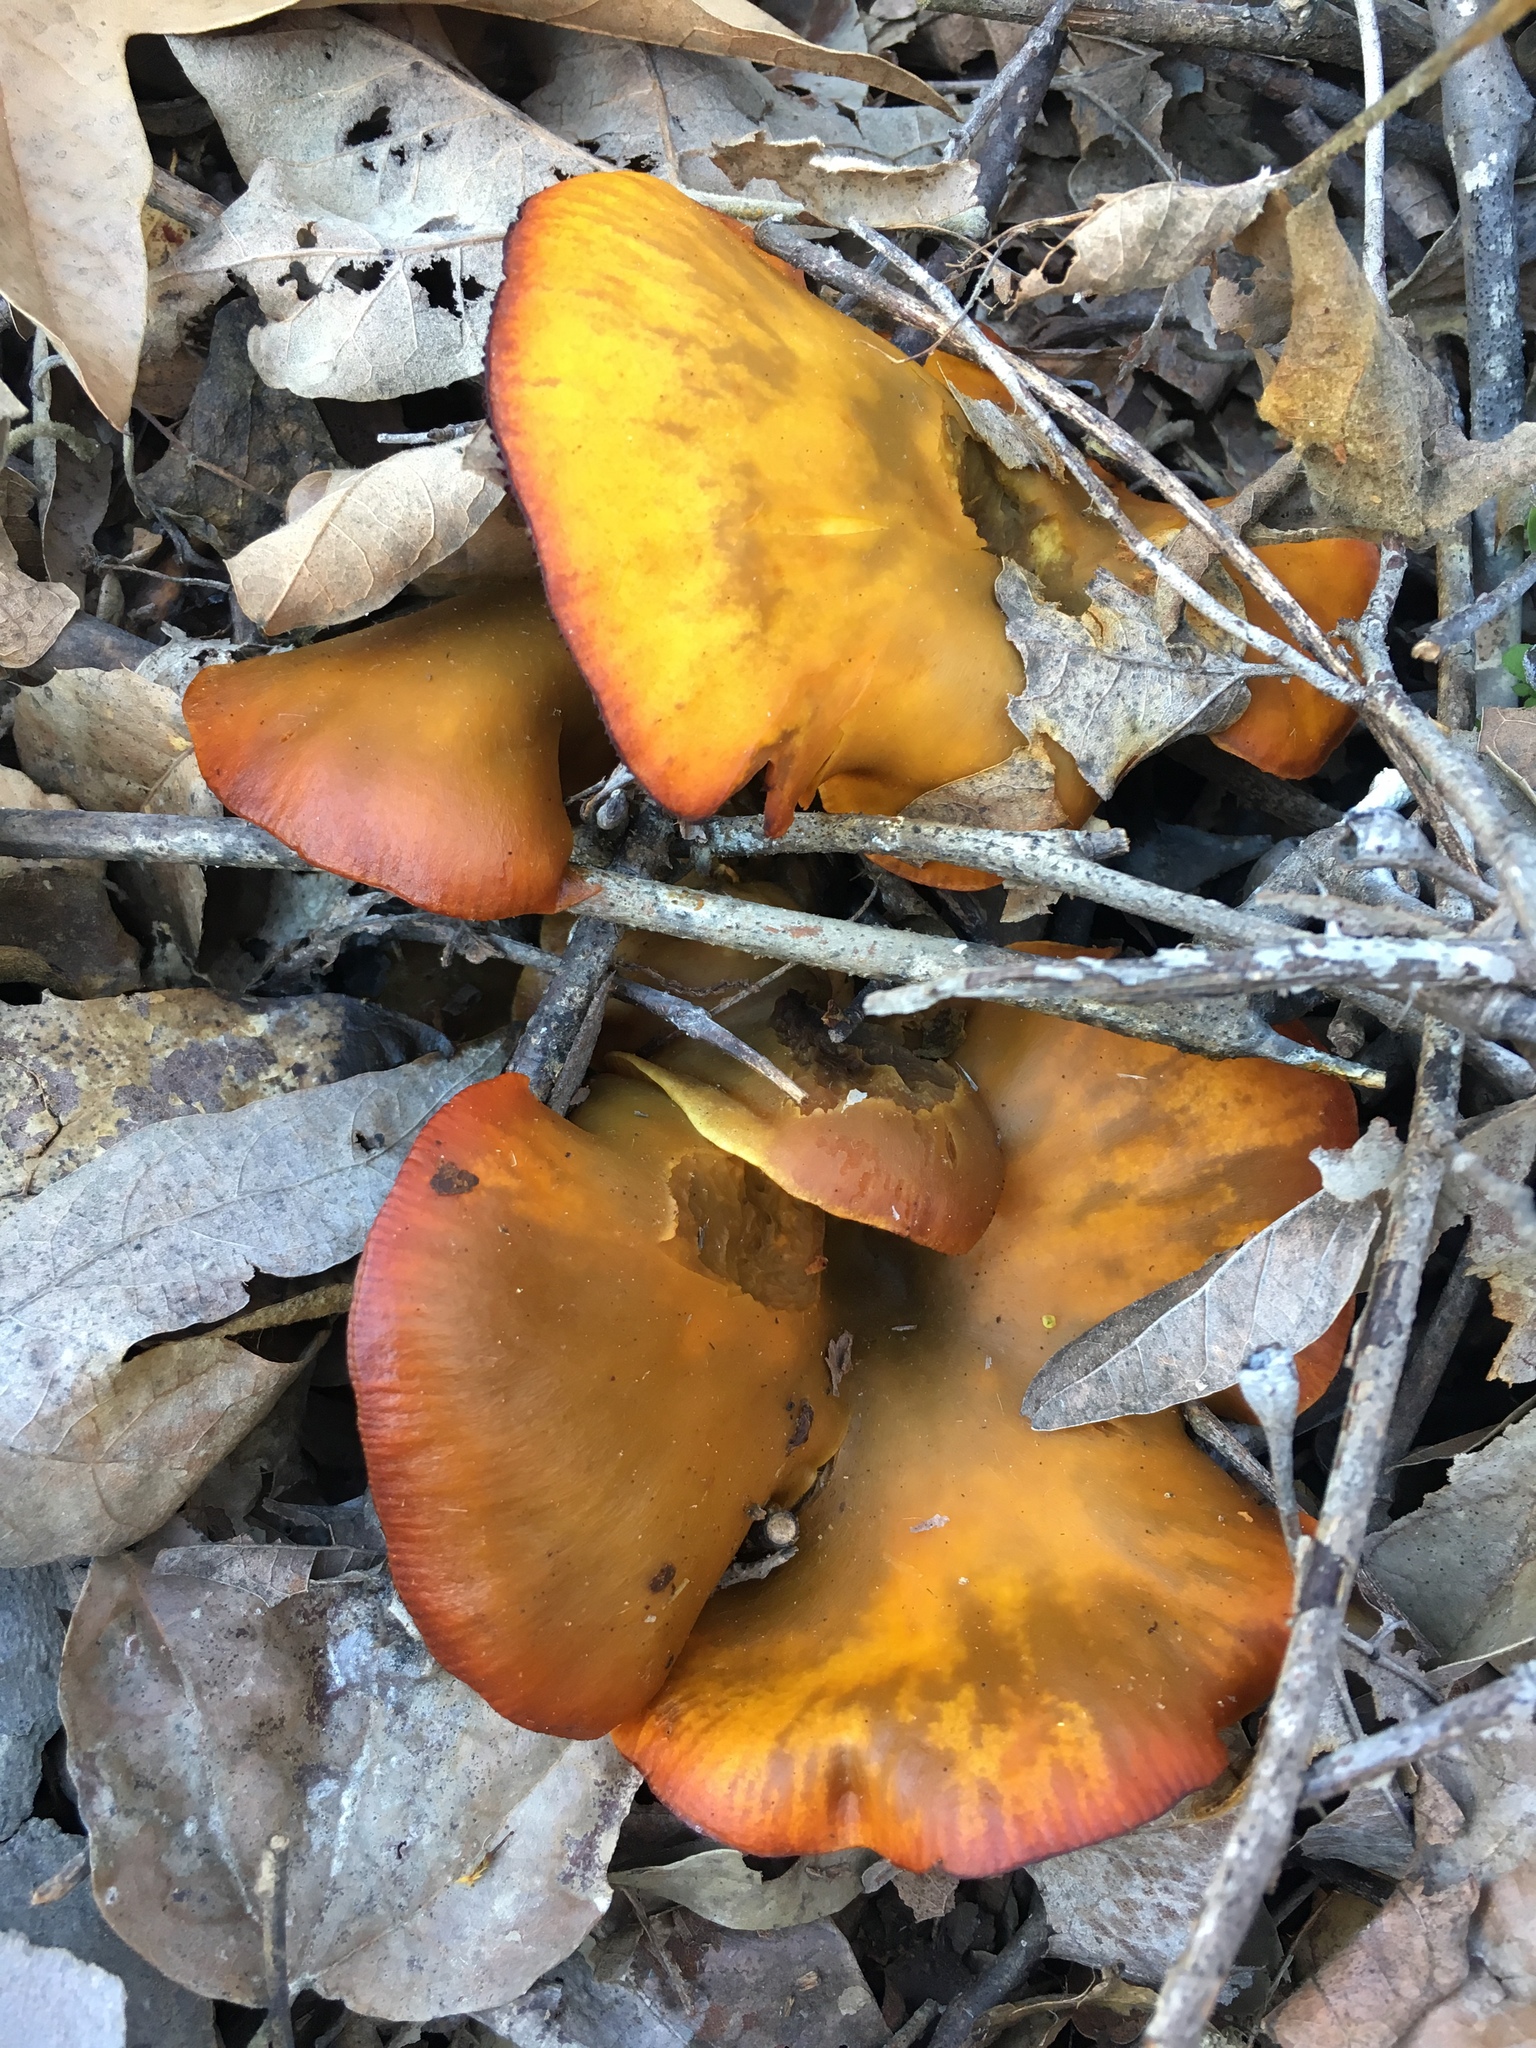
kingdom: Fungi
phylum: Basidiomycota
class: Agaricomycetes
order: Agaricales
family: Omphalotaceae
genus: Omphalotus
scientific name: Omphalotus olivascens
